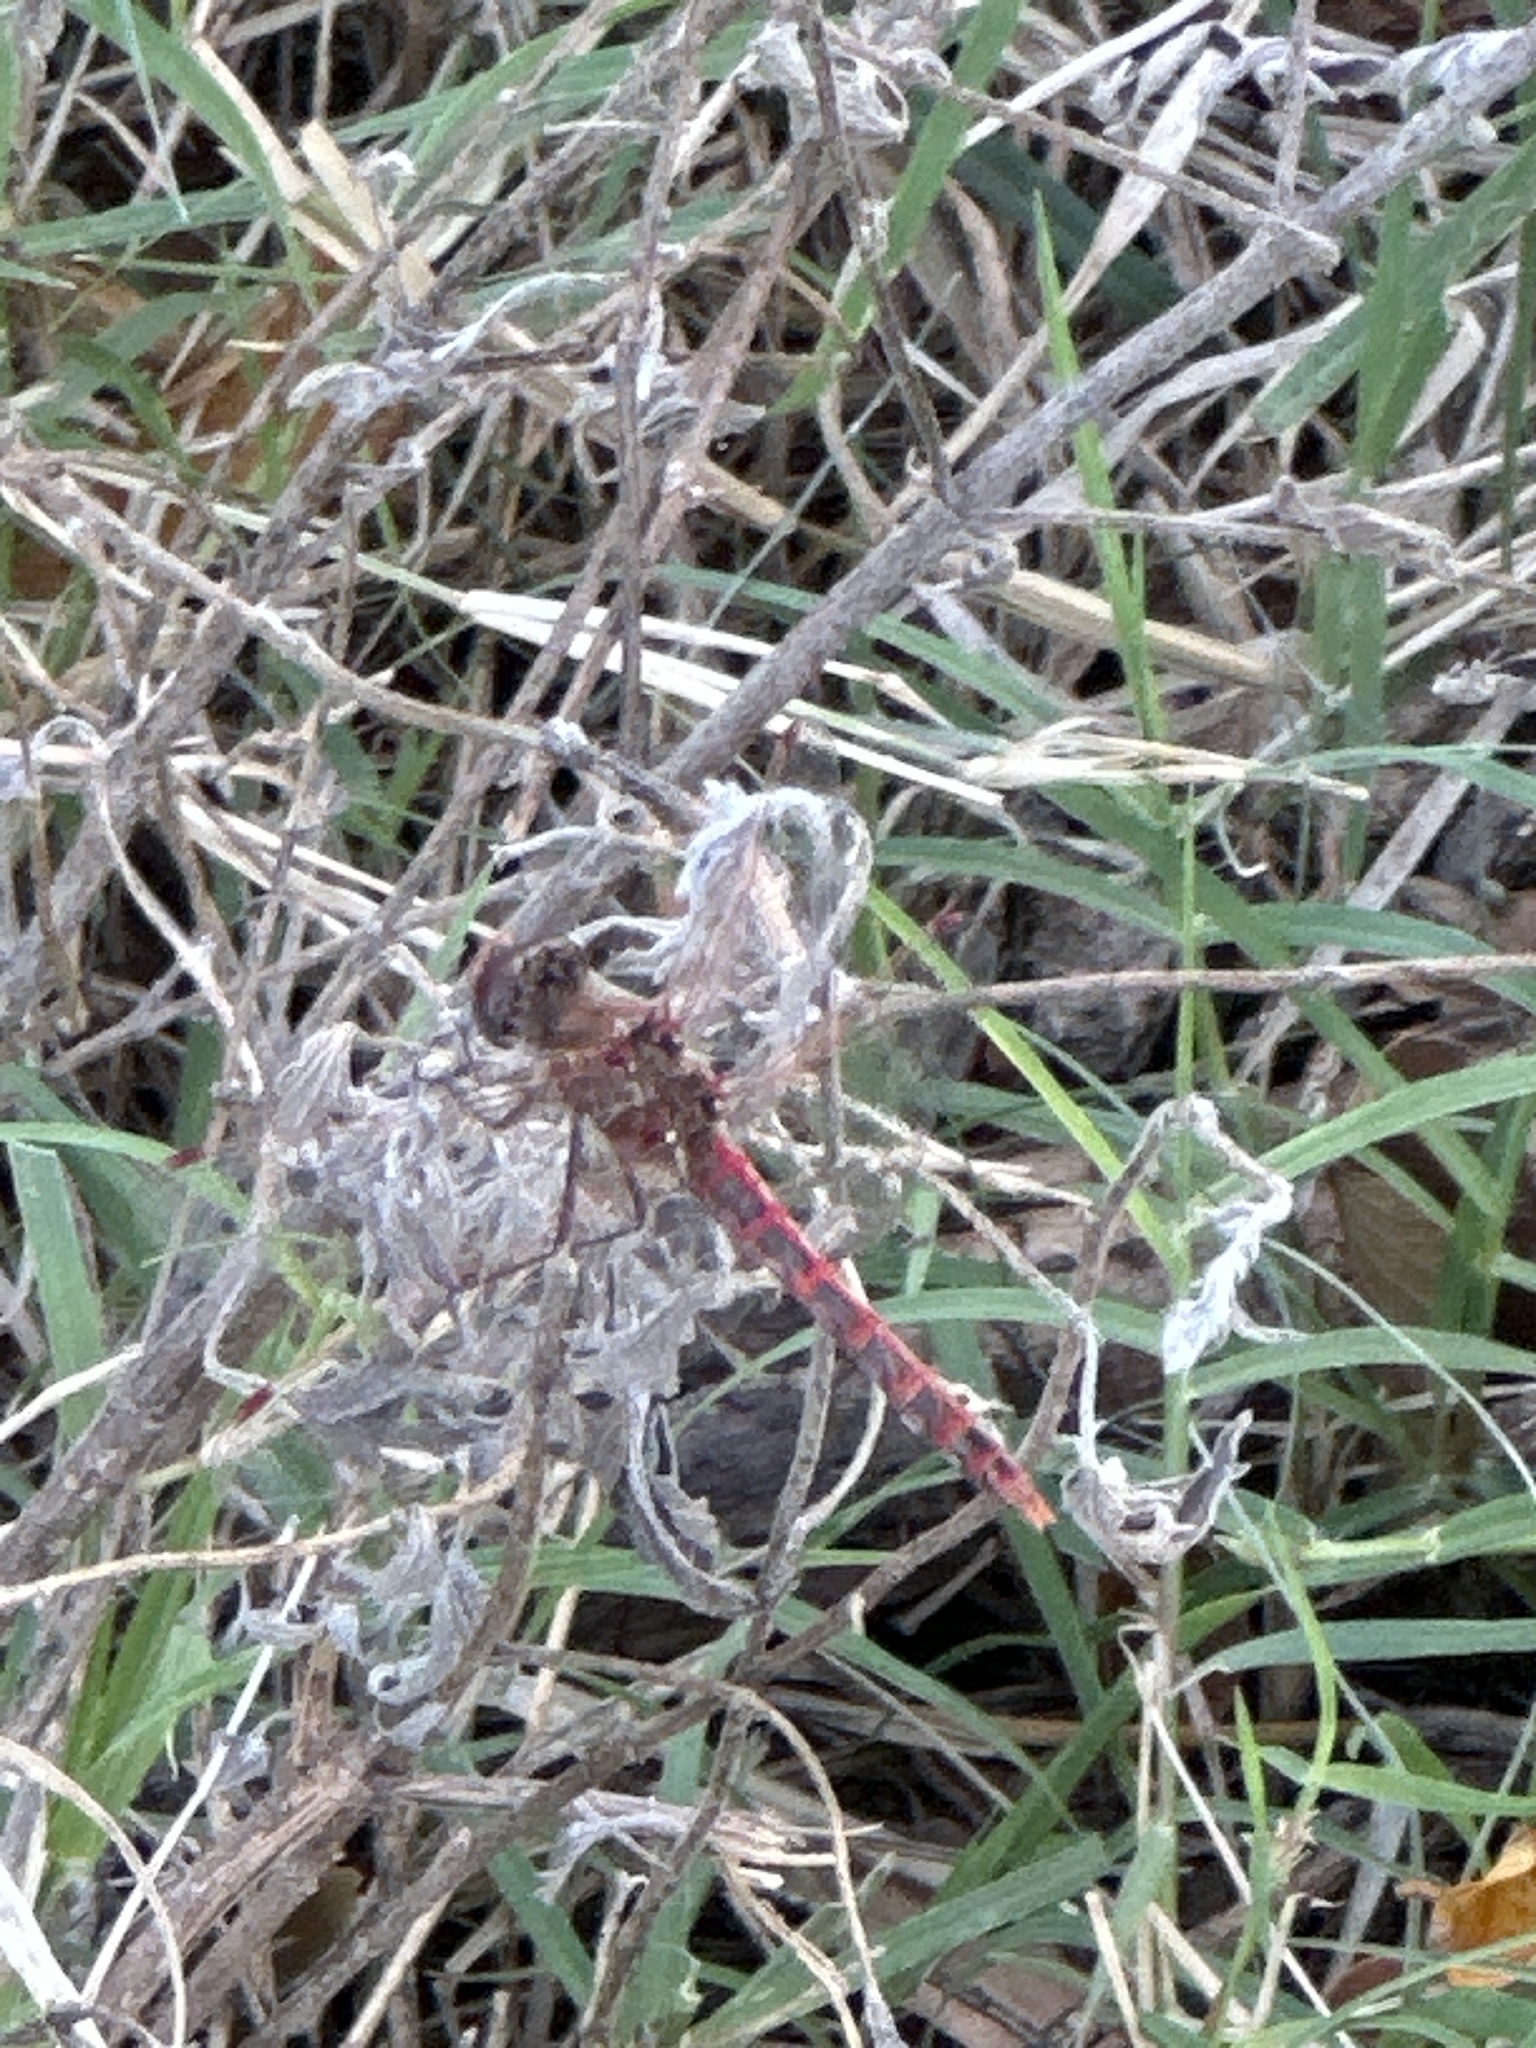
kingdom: Animalia
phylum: Arthropoda
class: Insecta
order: Odonata
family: Libellulidae
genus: Sympetrum
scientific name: Sympetrum corruptum
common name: Variegated meadowhawk
